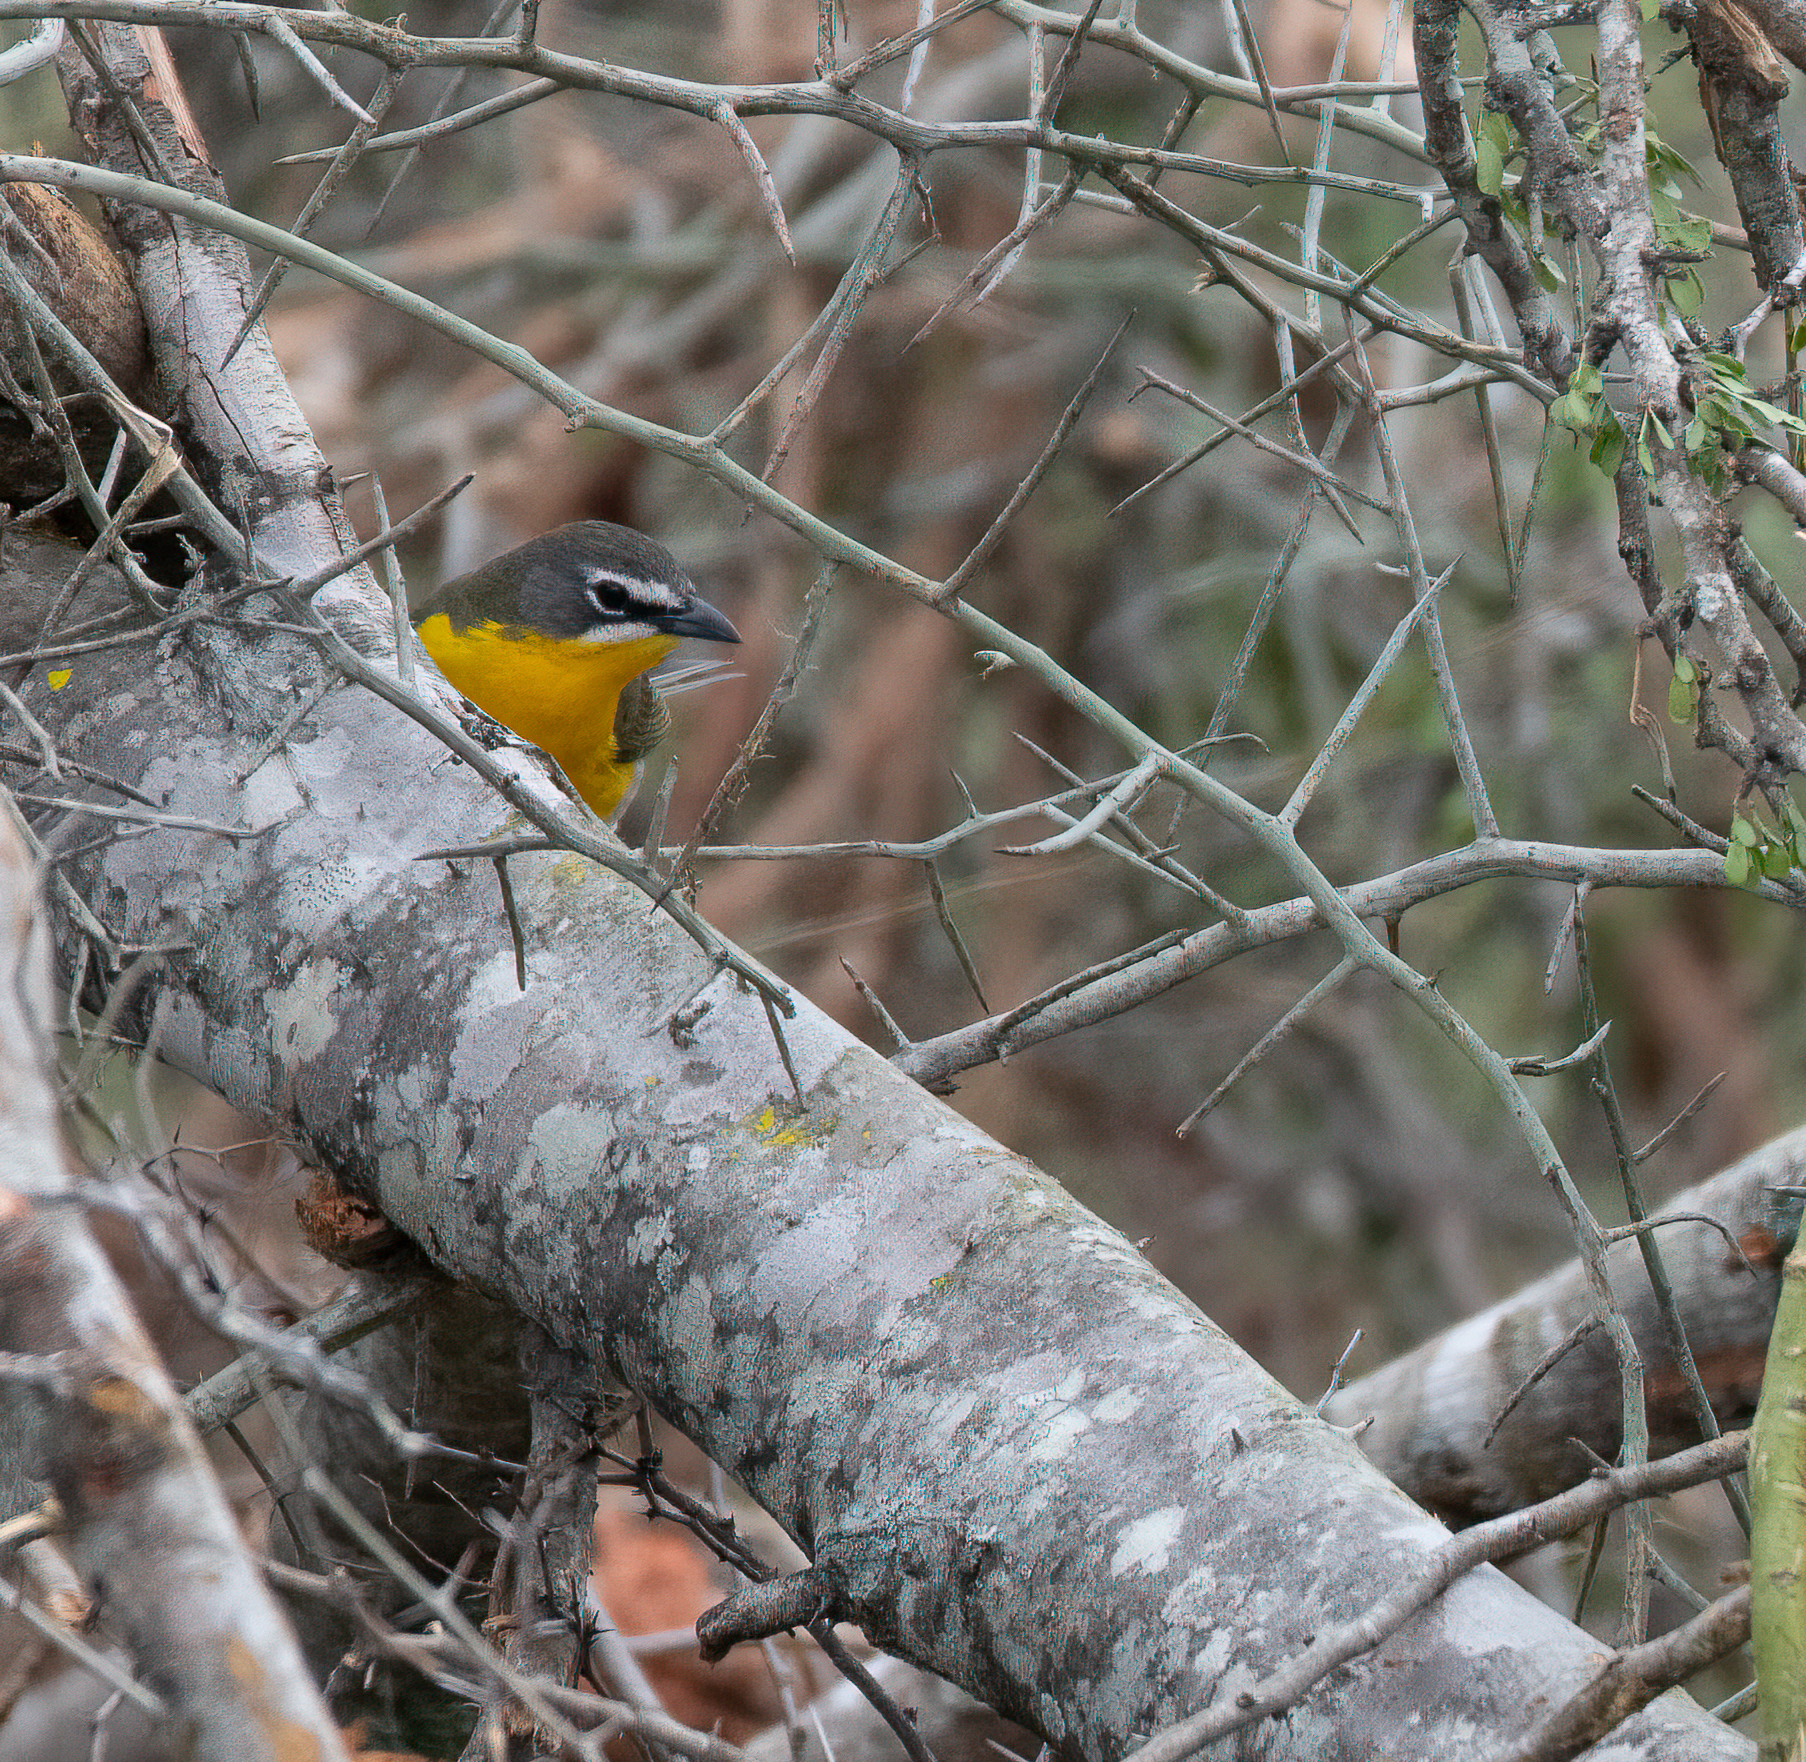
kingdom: Animalia
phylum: Chordata
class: Aves
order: Passeriformes
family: Parulidae
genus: Icteria
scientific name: Icteria virens
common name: Yellow-breasted chat
